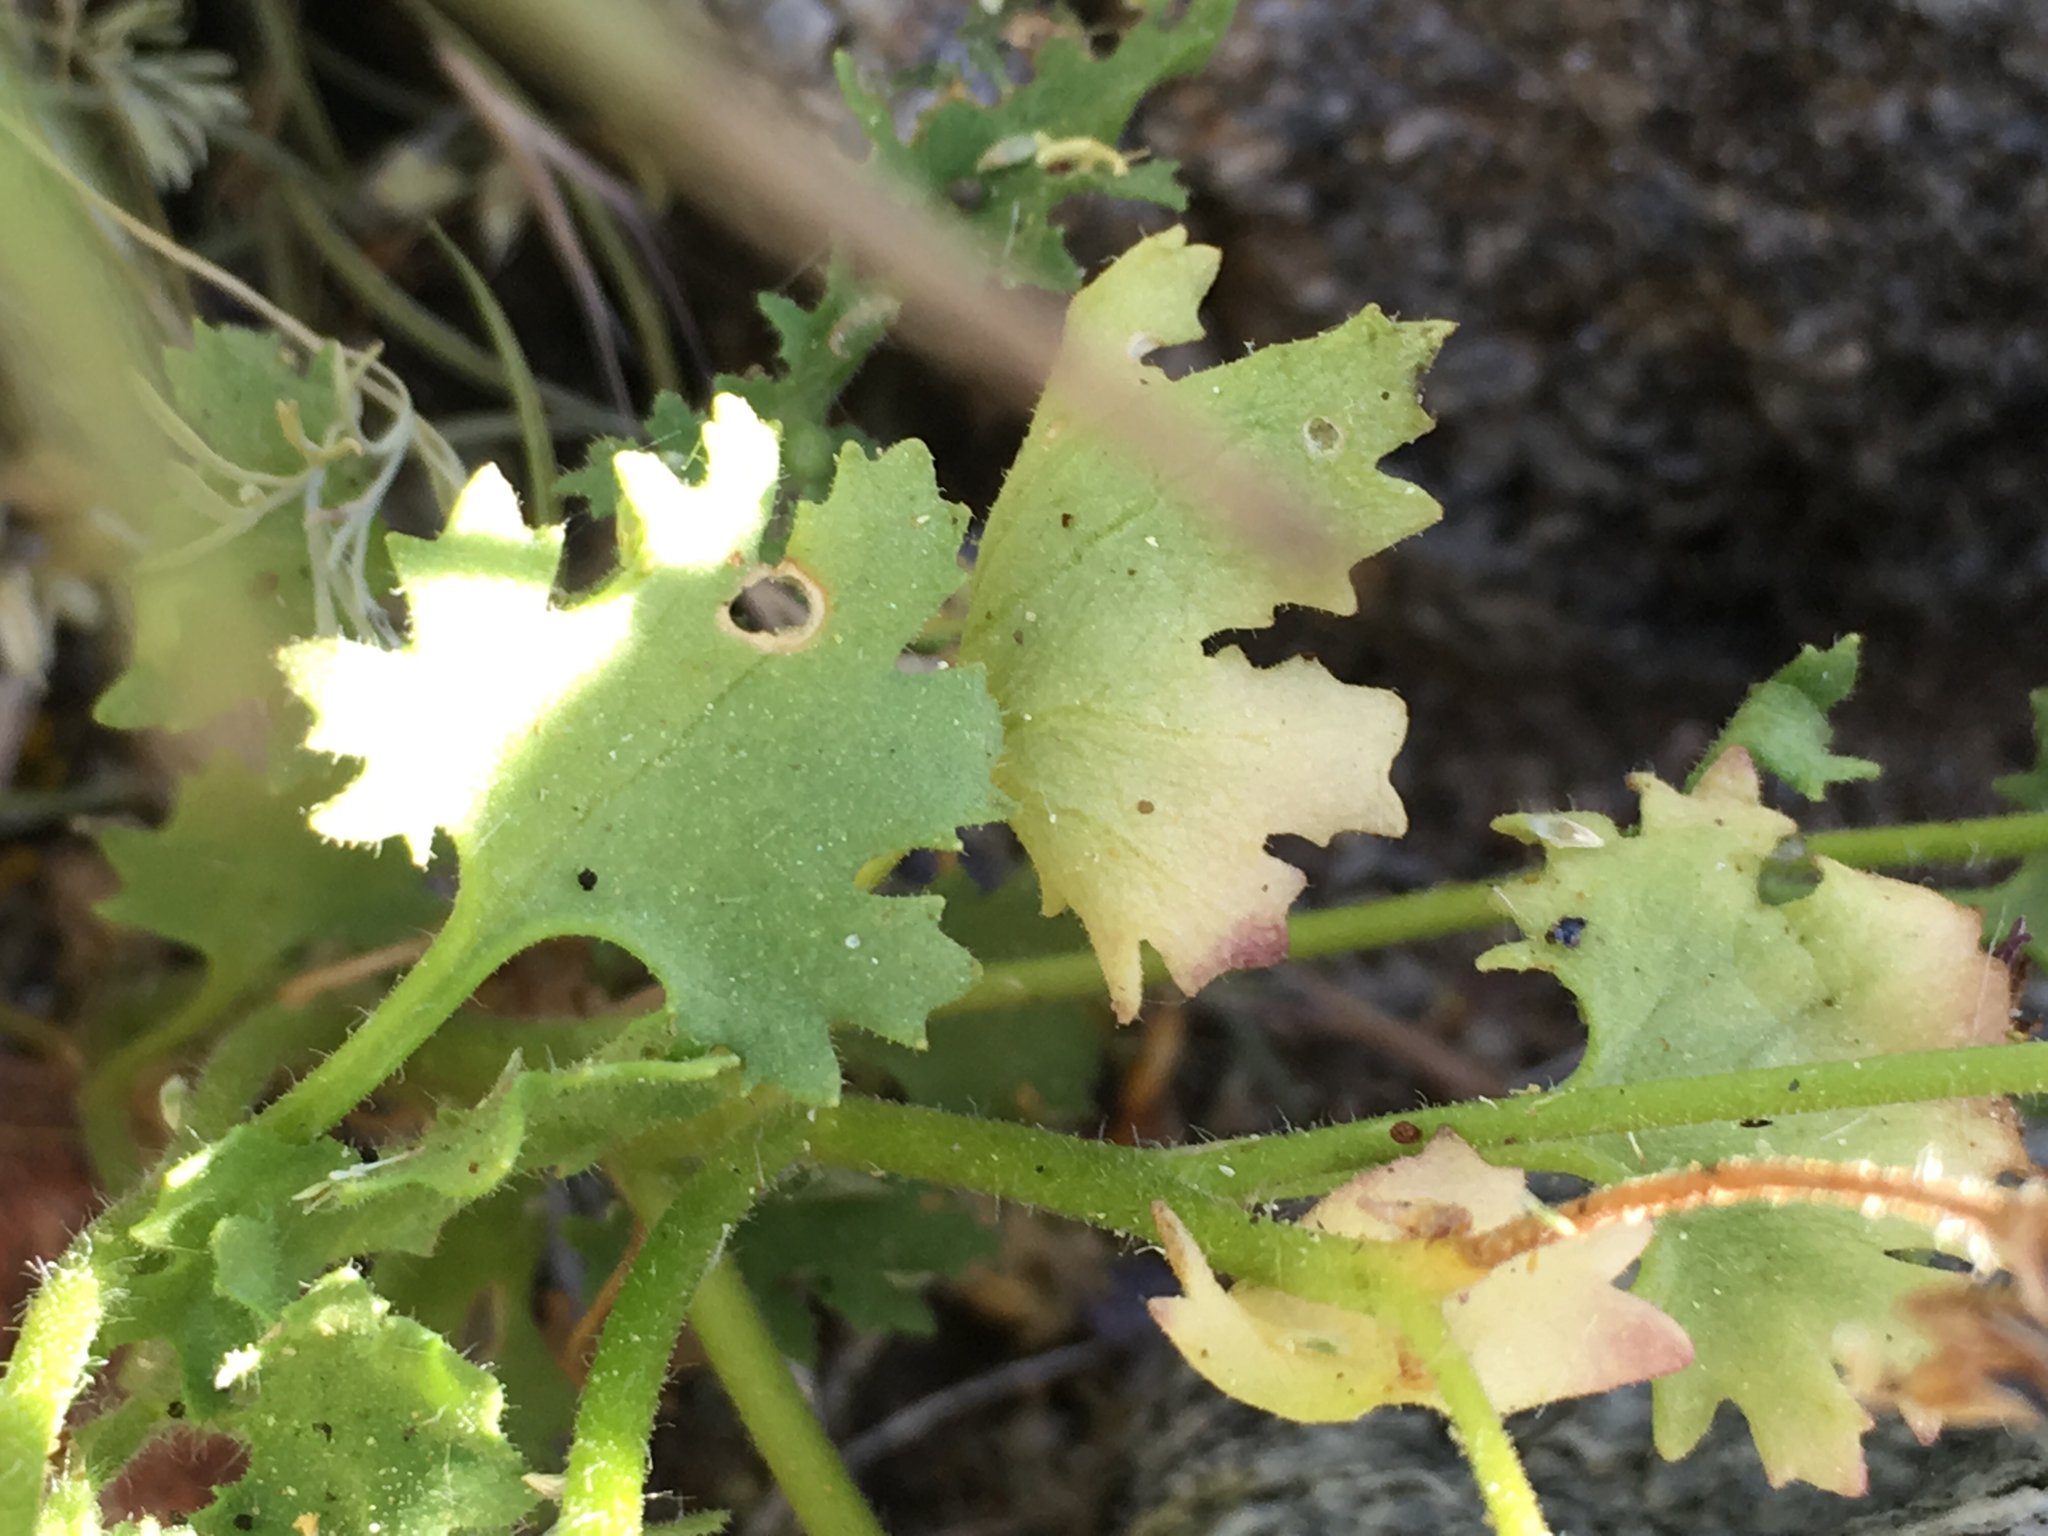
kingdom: Plantae
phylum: Tracheophyta
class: Magnoliopsida
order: Asterales
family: Asteraceae
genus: Laphamia
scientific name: Laphamia emoryi
